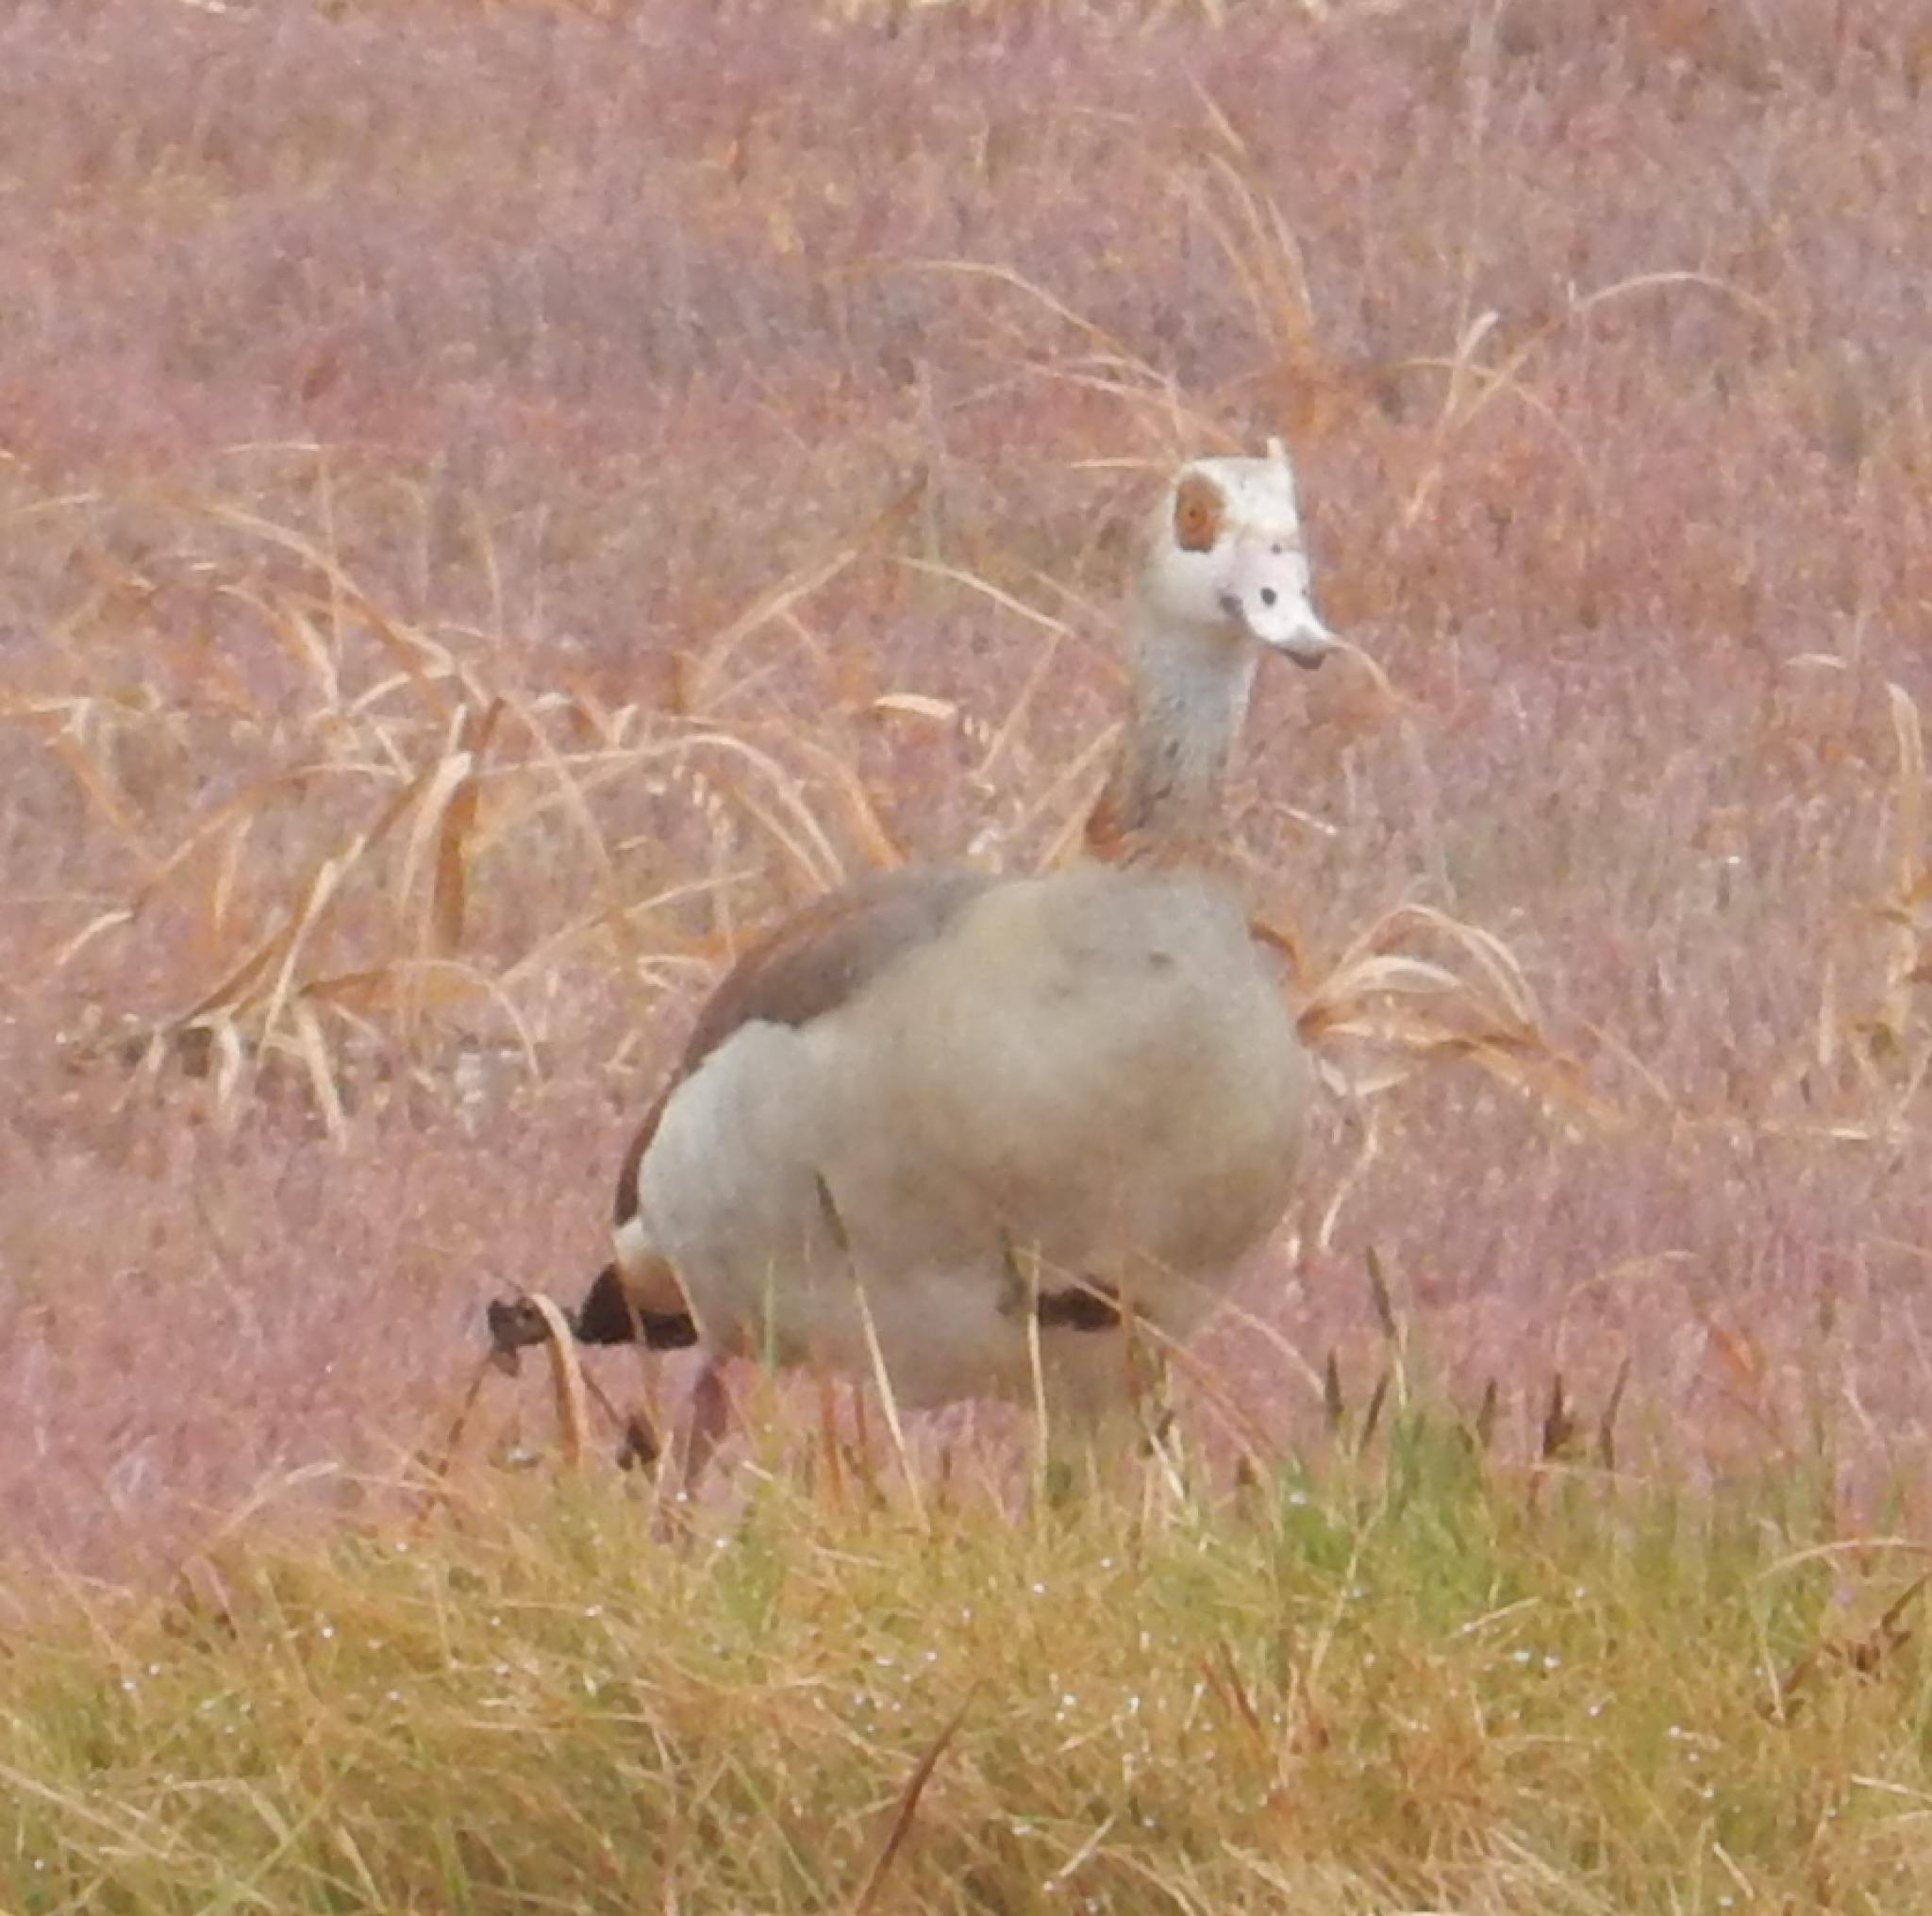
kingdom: Animalia
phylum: Chordata
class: Aves
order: Anseriformes
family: Anatidae
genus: Alopochen
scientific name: Alopochen aegyptiaca
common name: Egyptian goose
